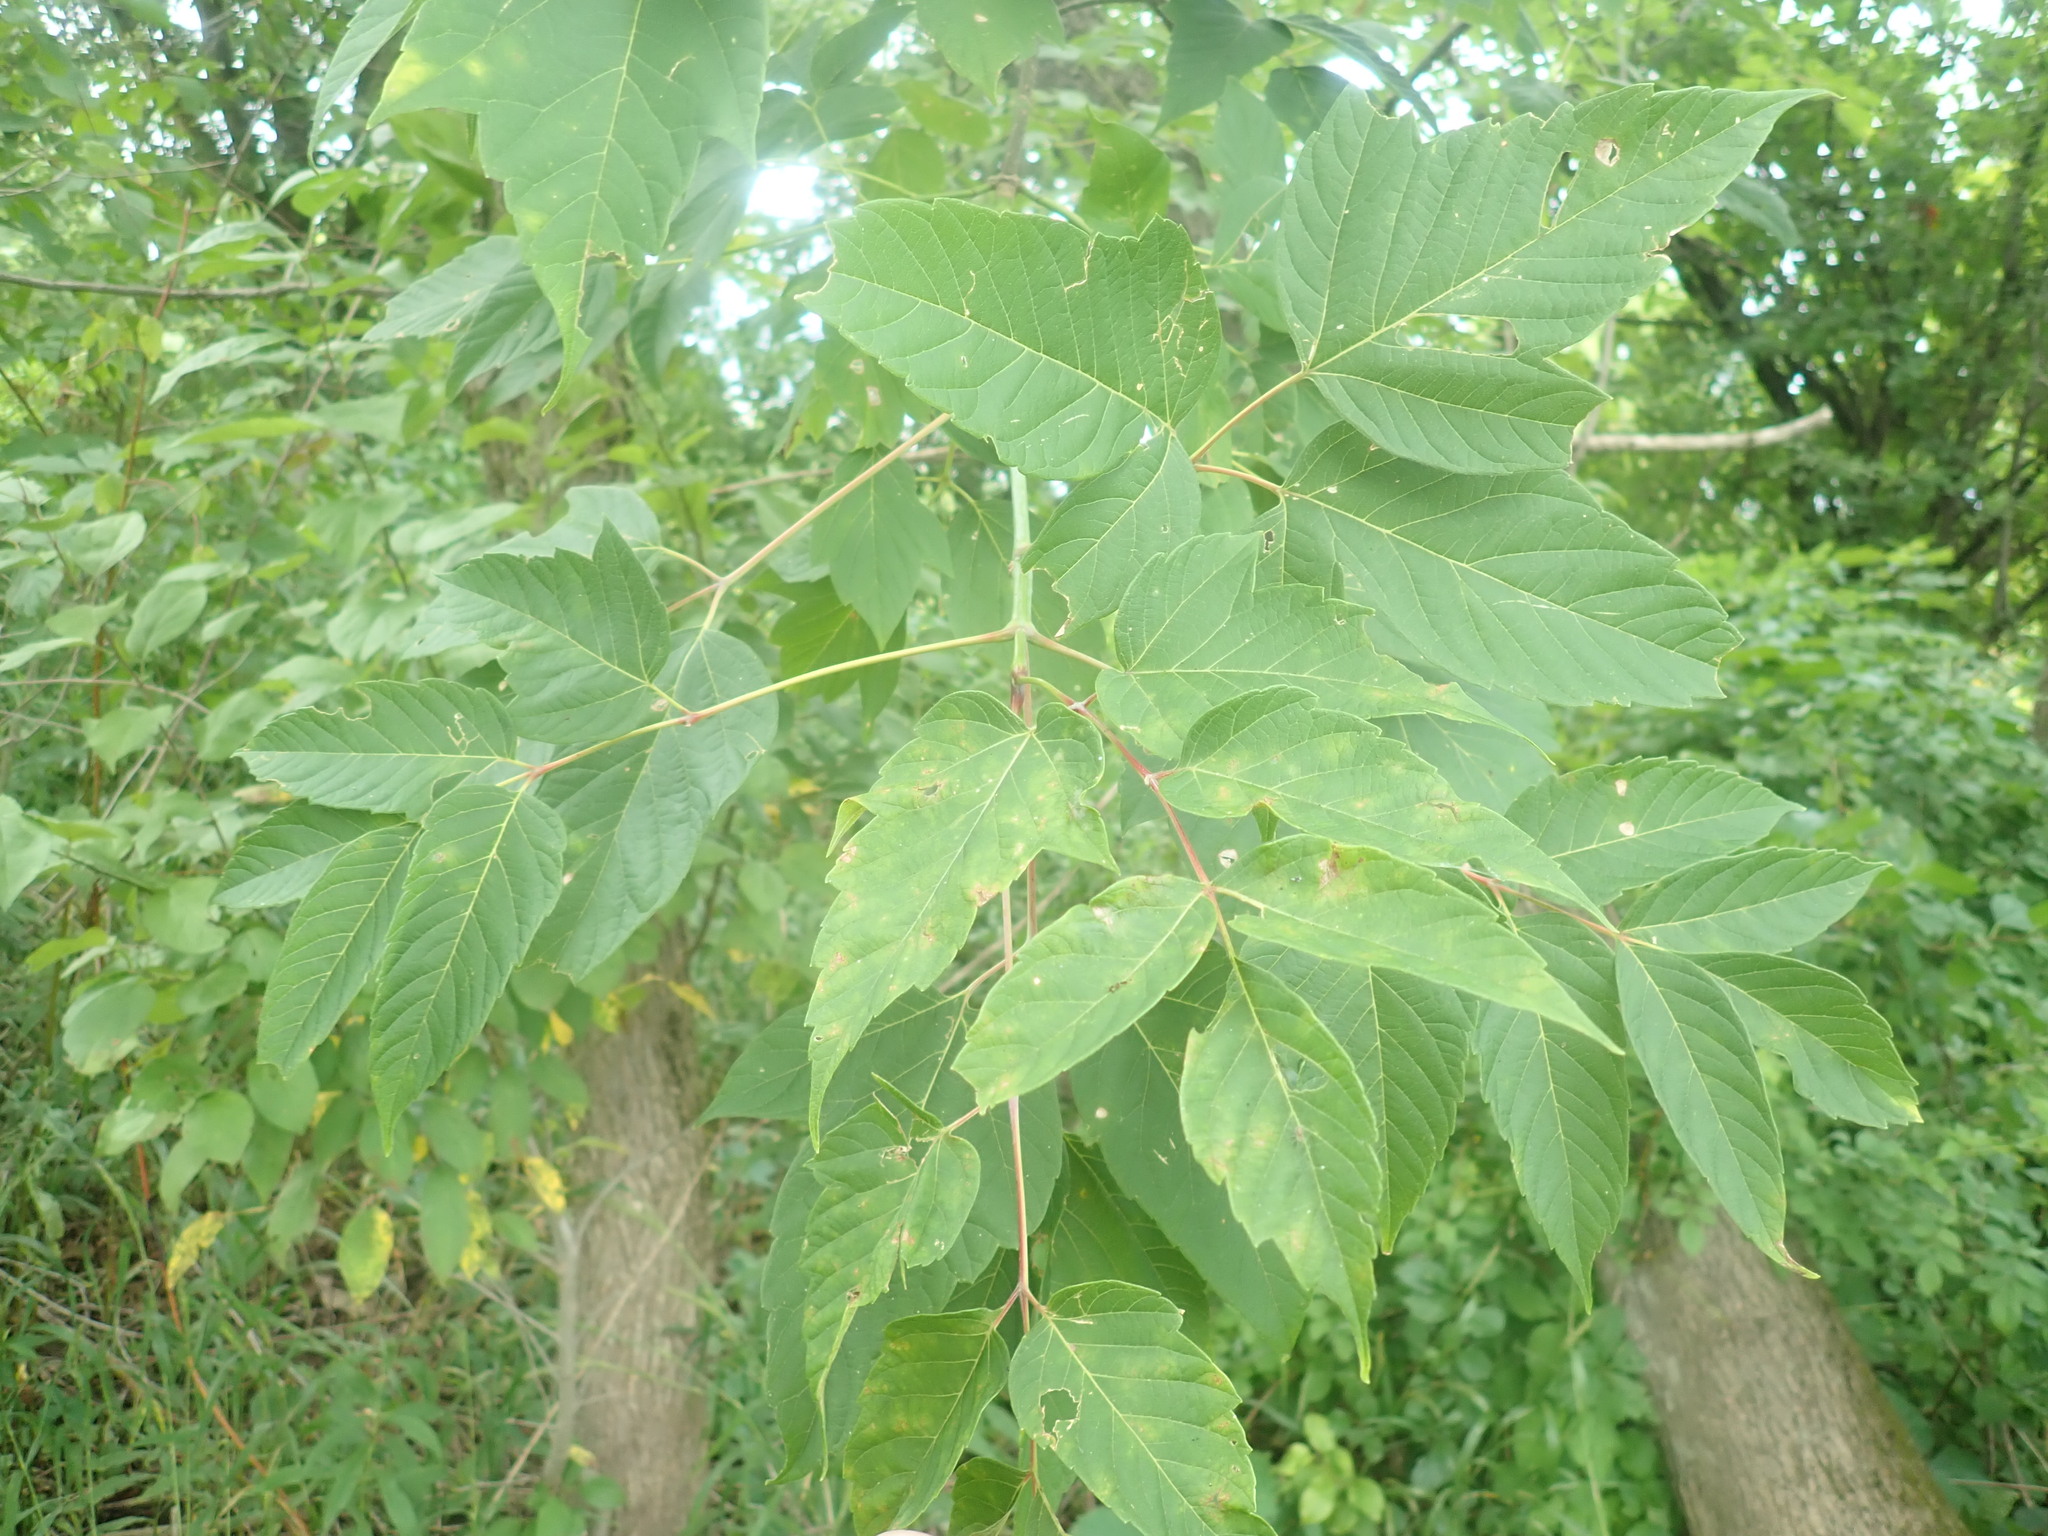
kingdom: Plantae
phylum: Tracheophyta
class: Magnoliopsida
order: Sapindales
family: Sapindaceae
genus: Acer
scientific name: Acer negundo
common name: Ashleaf maple
